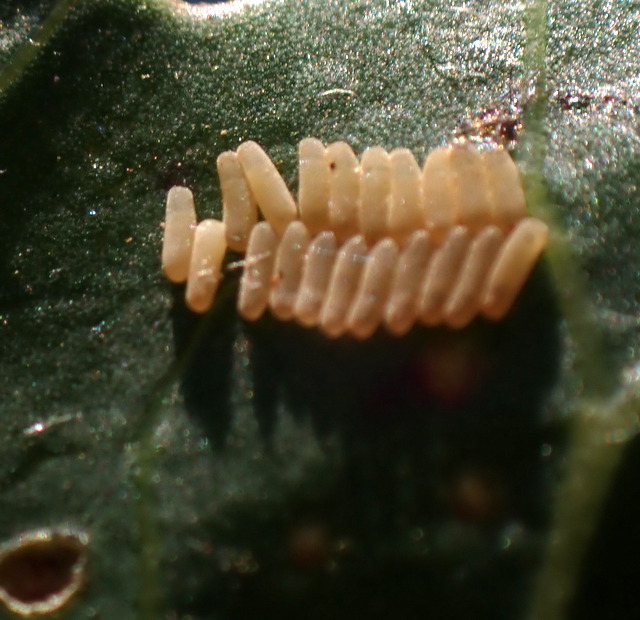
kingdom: Animalia
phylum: Arthropoda
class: Insecta
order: Coleoptera
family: Chrysomelidae
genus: Agasicles
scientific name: Agasicles hygrophila
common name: Alligatorweed flea beetle
